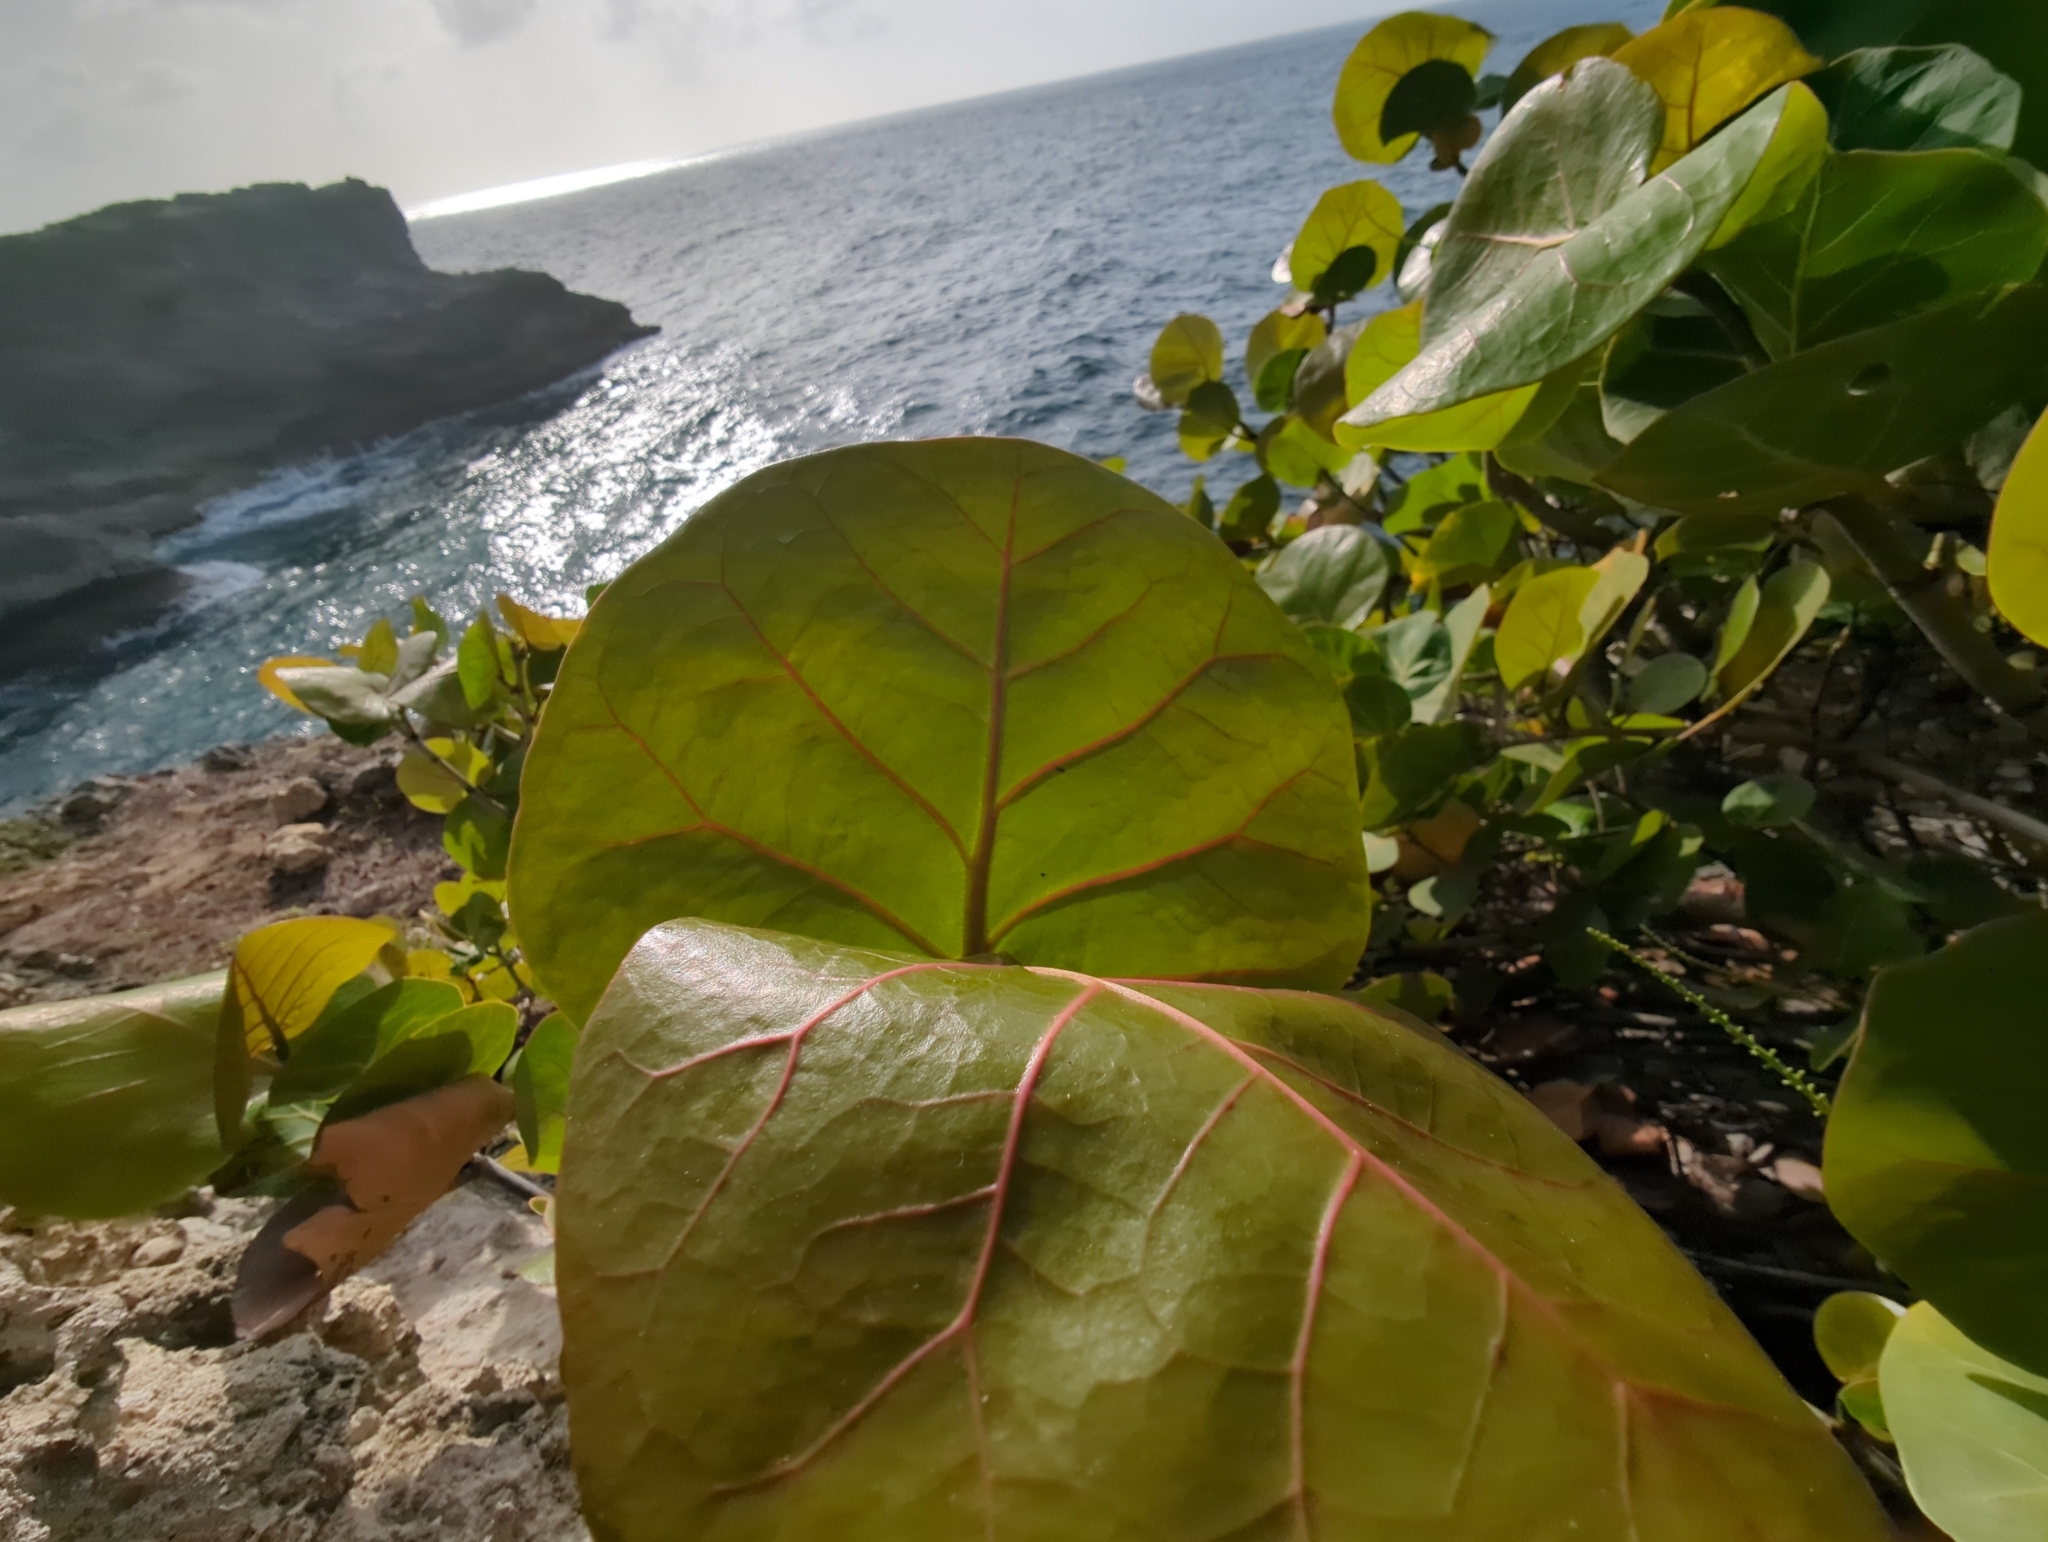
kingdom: Plantae
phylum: Tracheophyta
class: Magnoliopsida
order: Caryophyllales
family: Polygonaceae
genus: Coccoloba
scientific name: Coccoloba uvifera
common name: Seagrape
